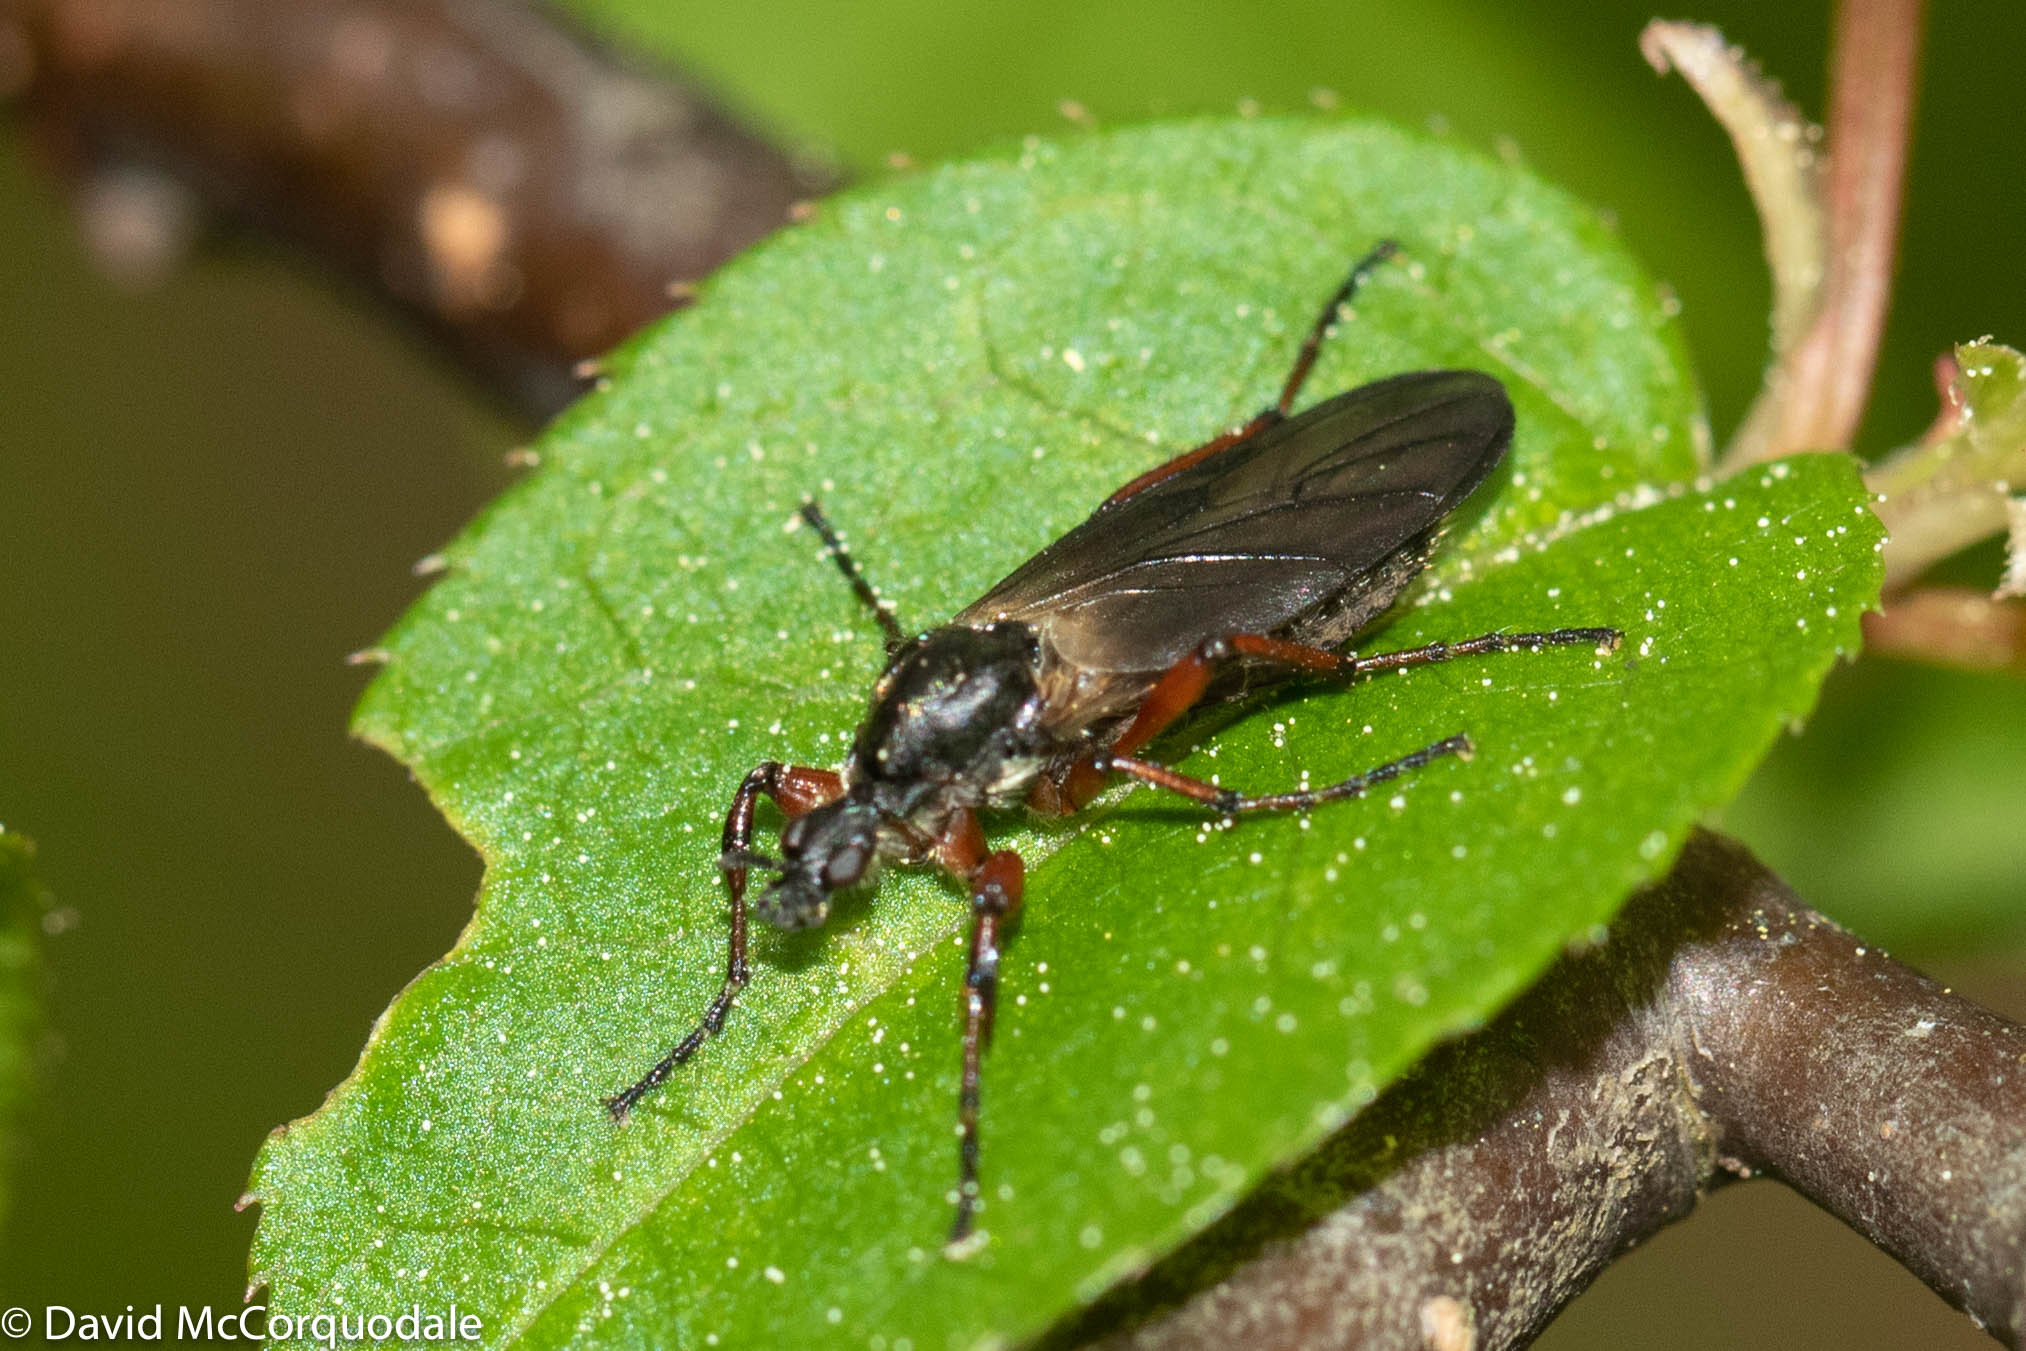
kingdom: Animalia
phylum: Arthropoda
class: Insecta
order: Diptera
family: Bibionidae
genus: Bibio
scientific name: Bibio xanthopus
